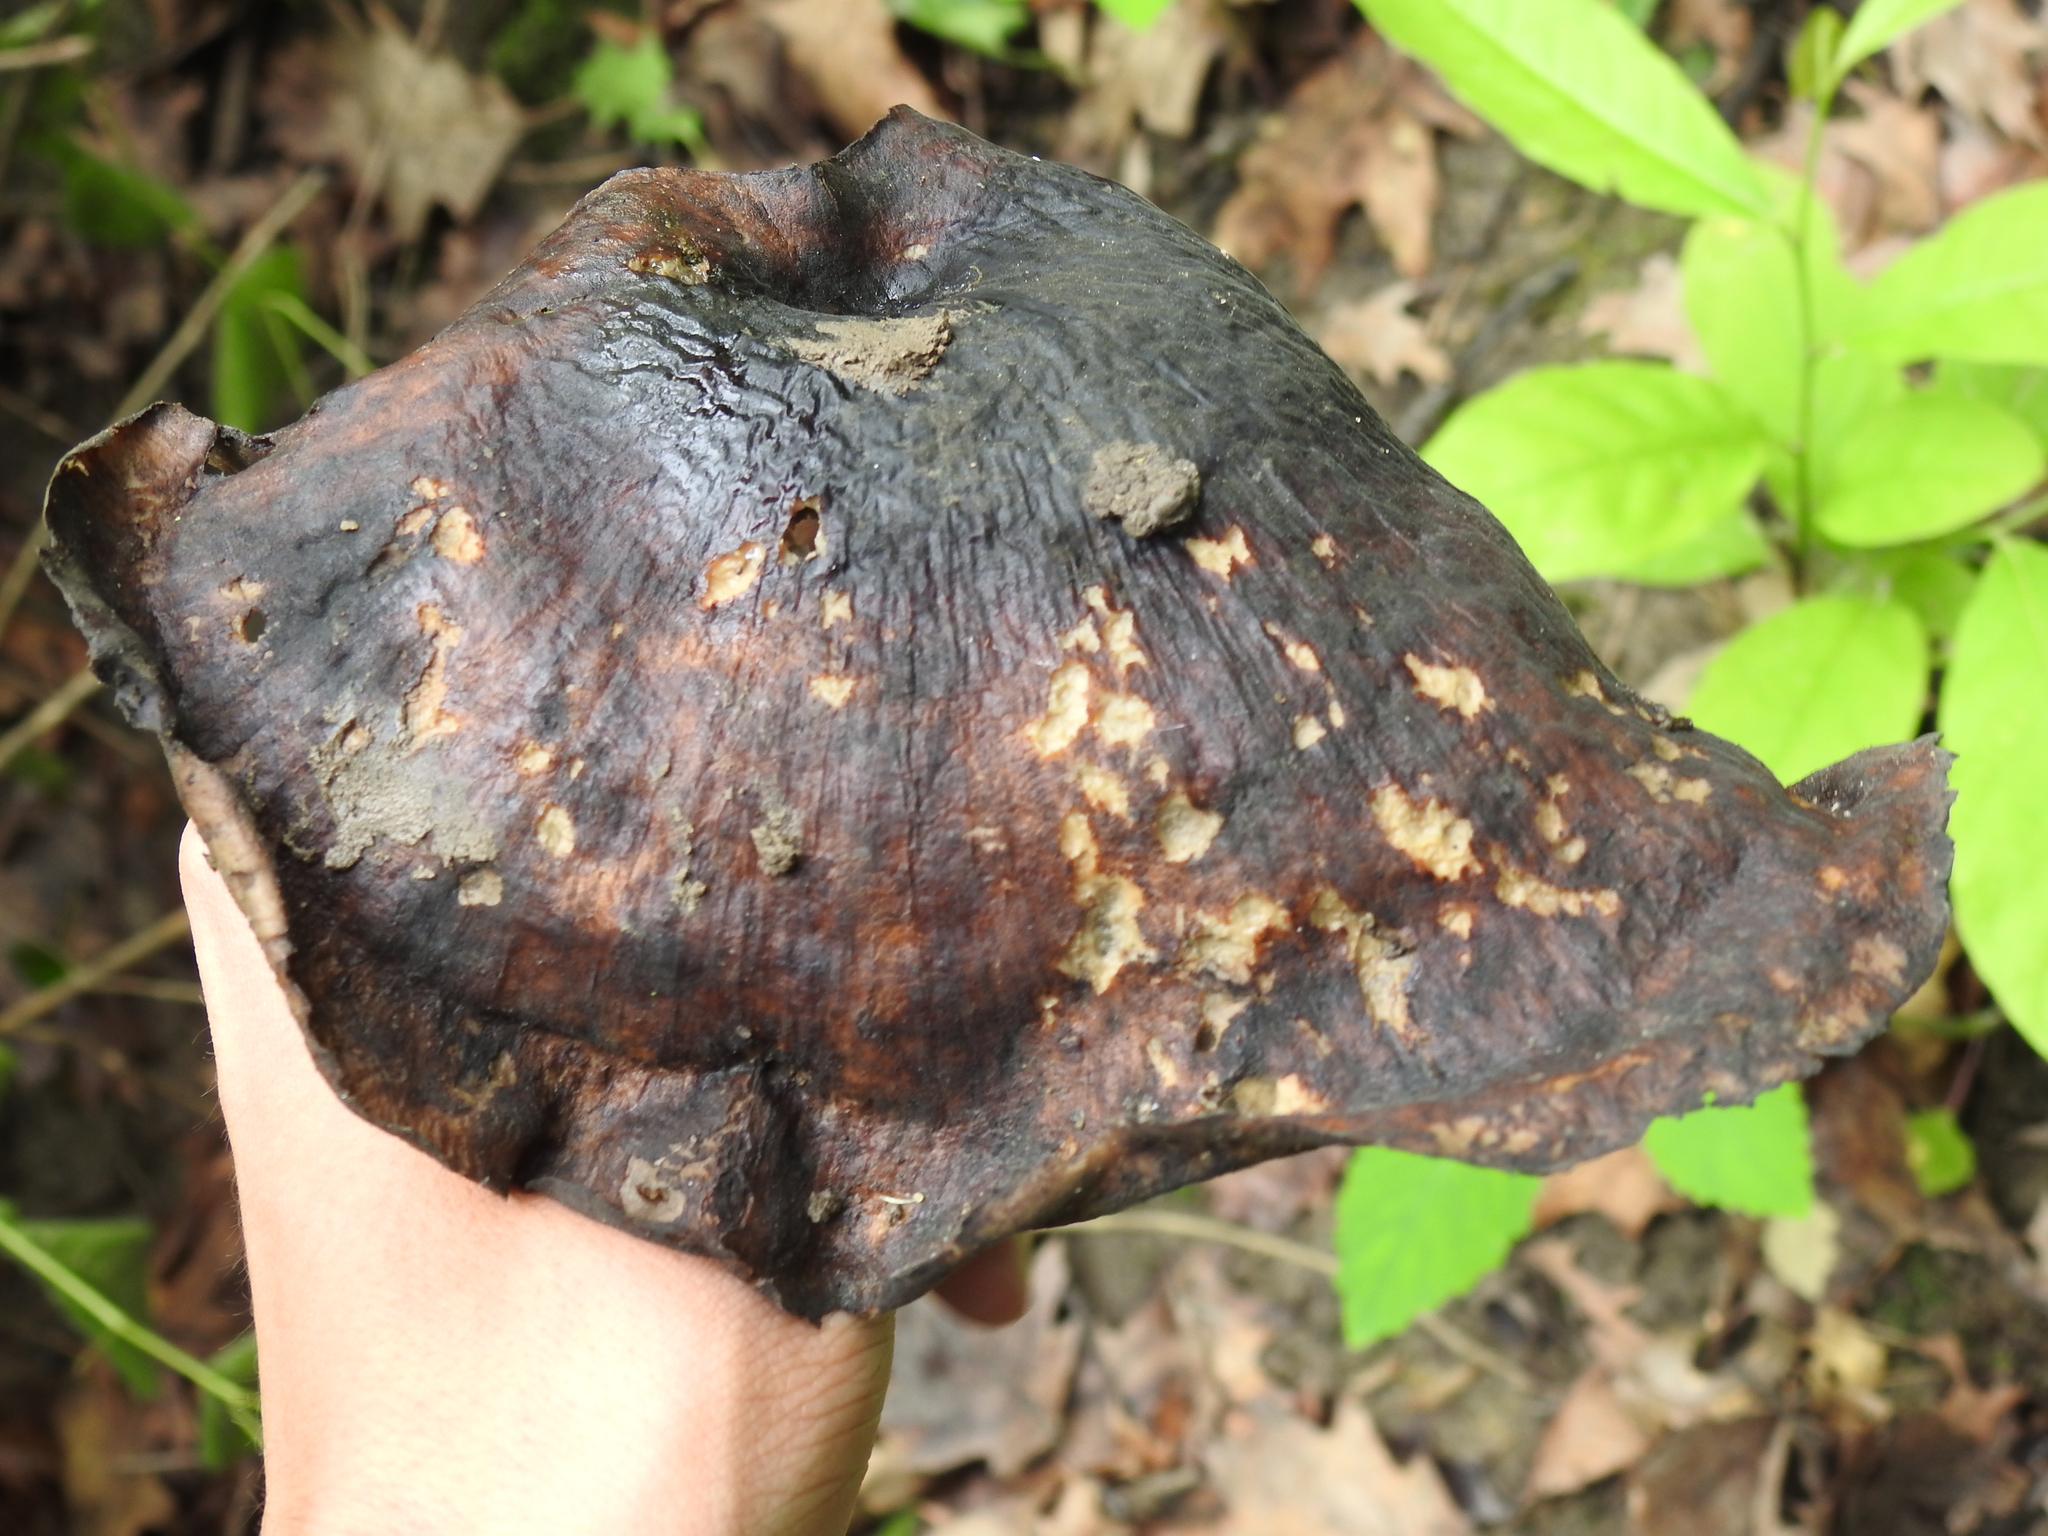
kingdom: Fungi
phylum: Basidiomycota
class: Agaricomycetes
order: Polyporales
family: Polyporaceae
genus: Picipes
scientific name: Picipes badius
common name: Bay polypore
